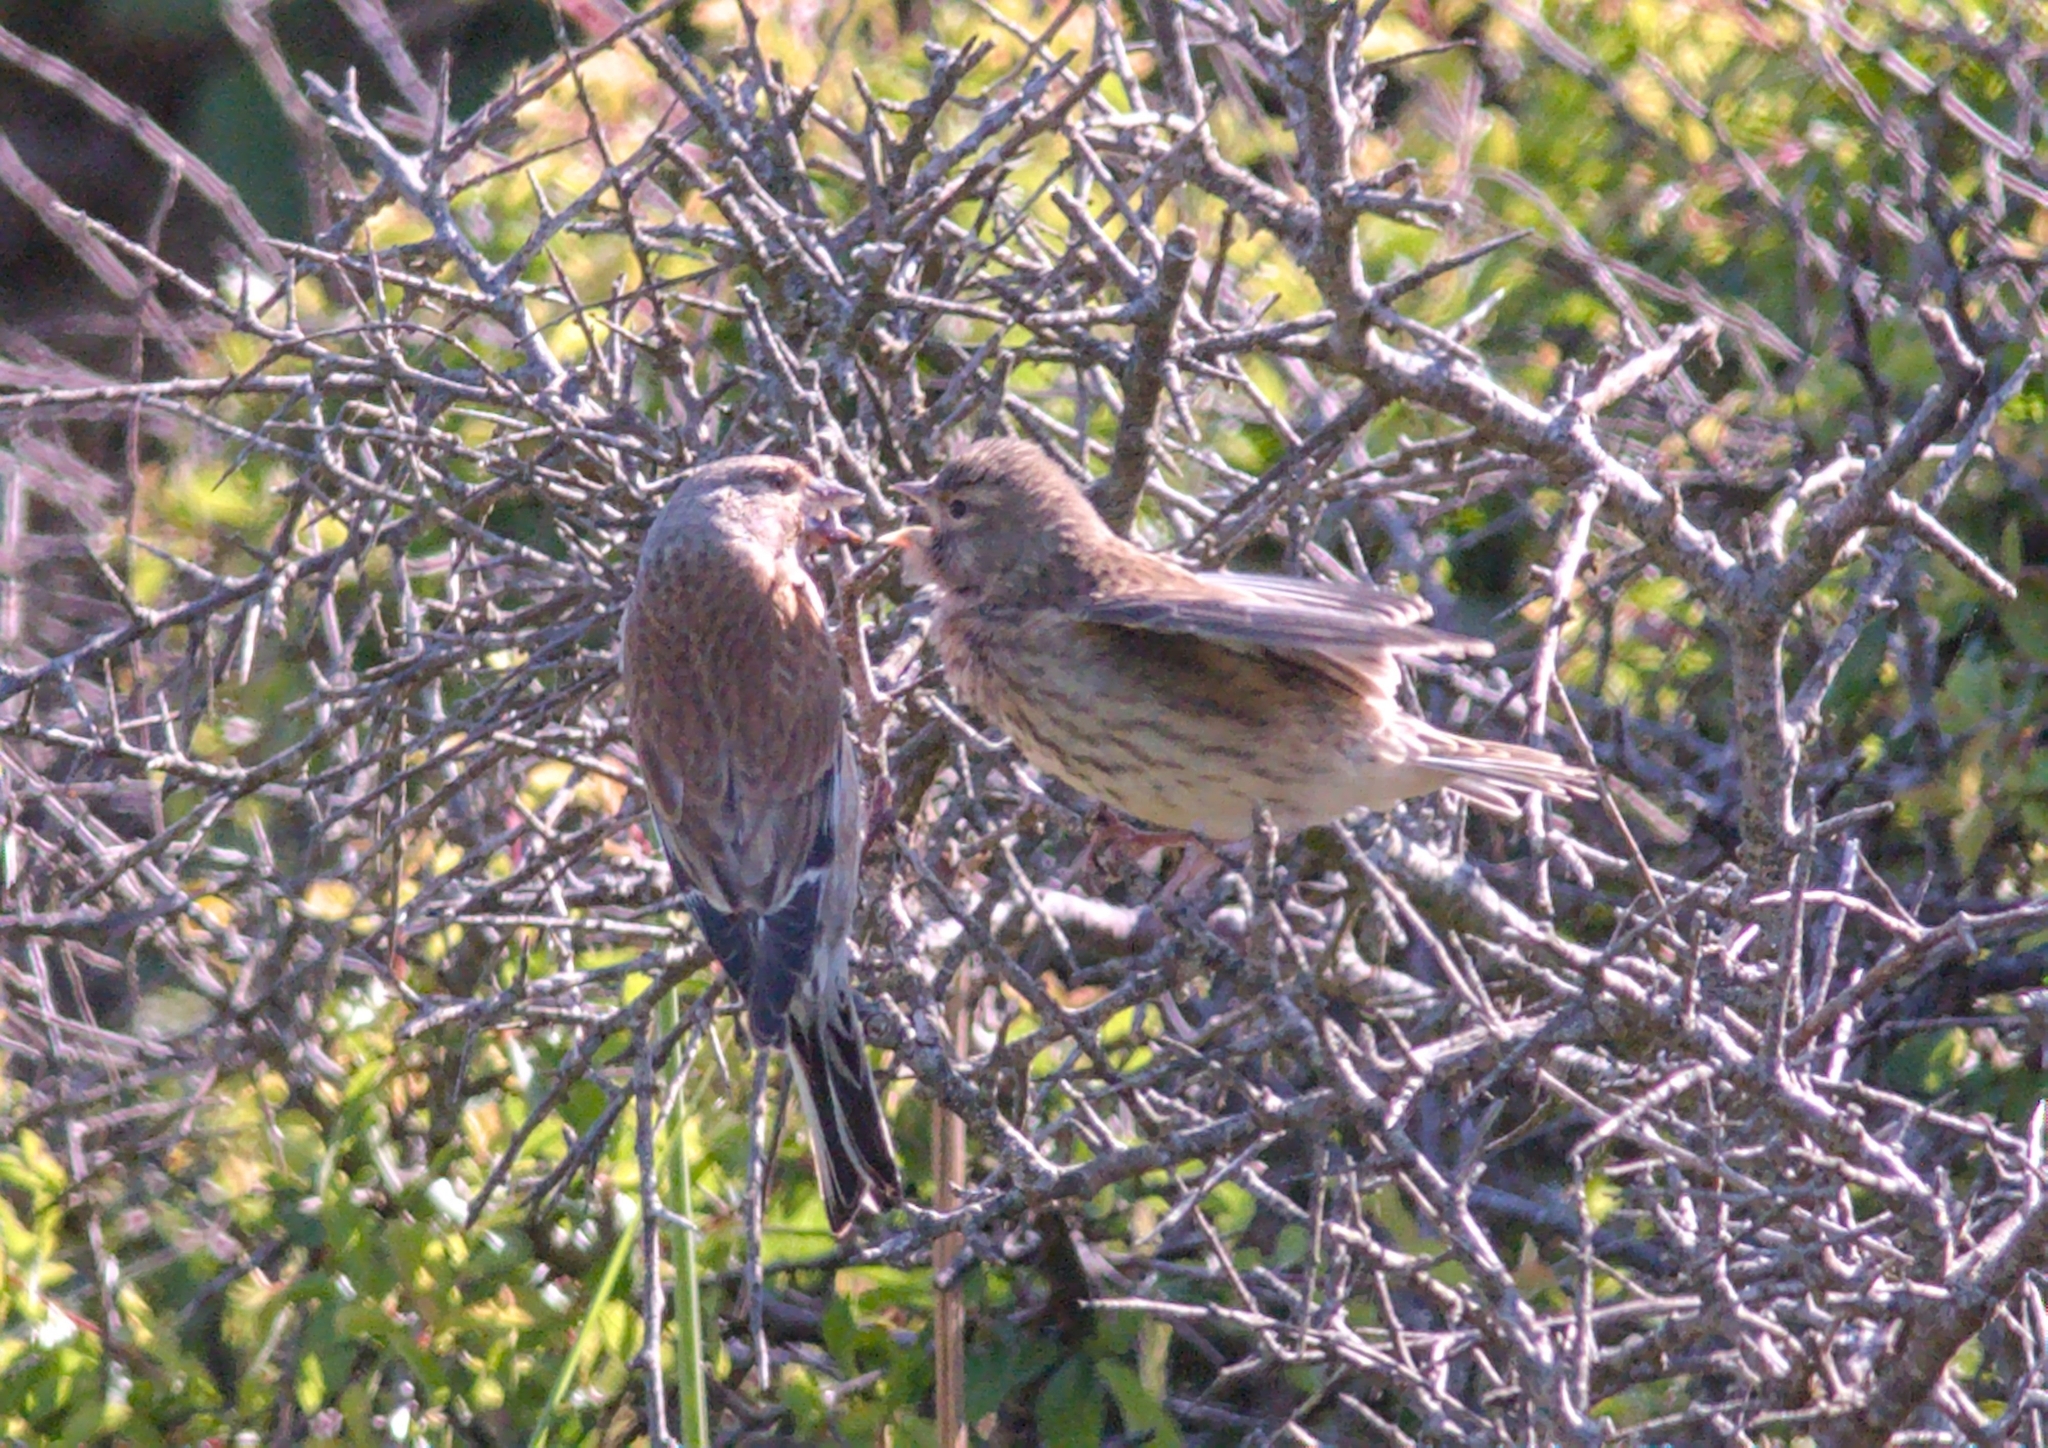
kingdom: Animalia
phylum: Chordata
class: Aves
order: Passeriformes
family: Fringillidae
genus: Linaria
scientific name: Linaria cannabina
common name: Common linnet
